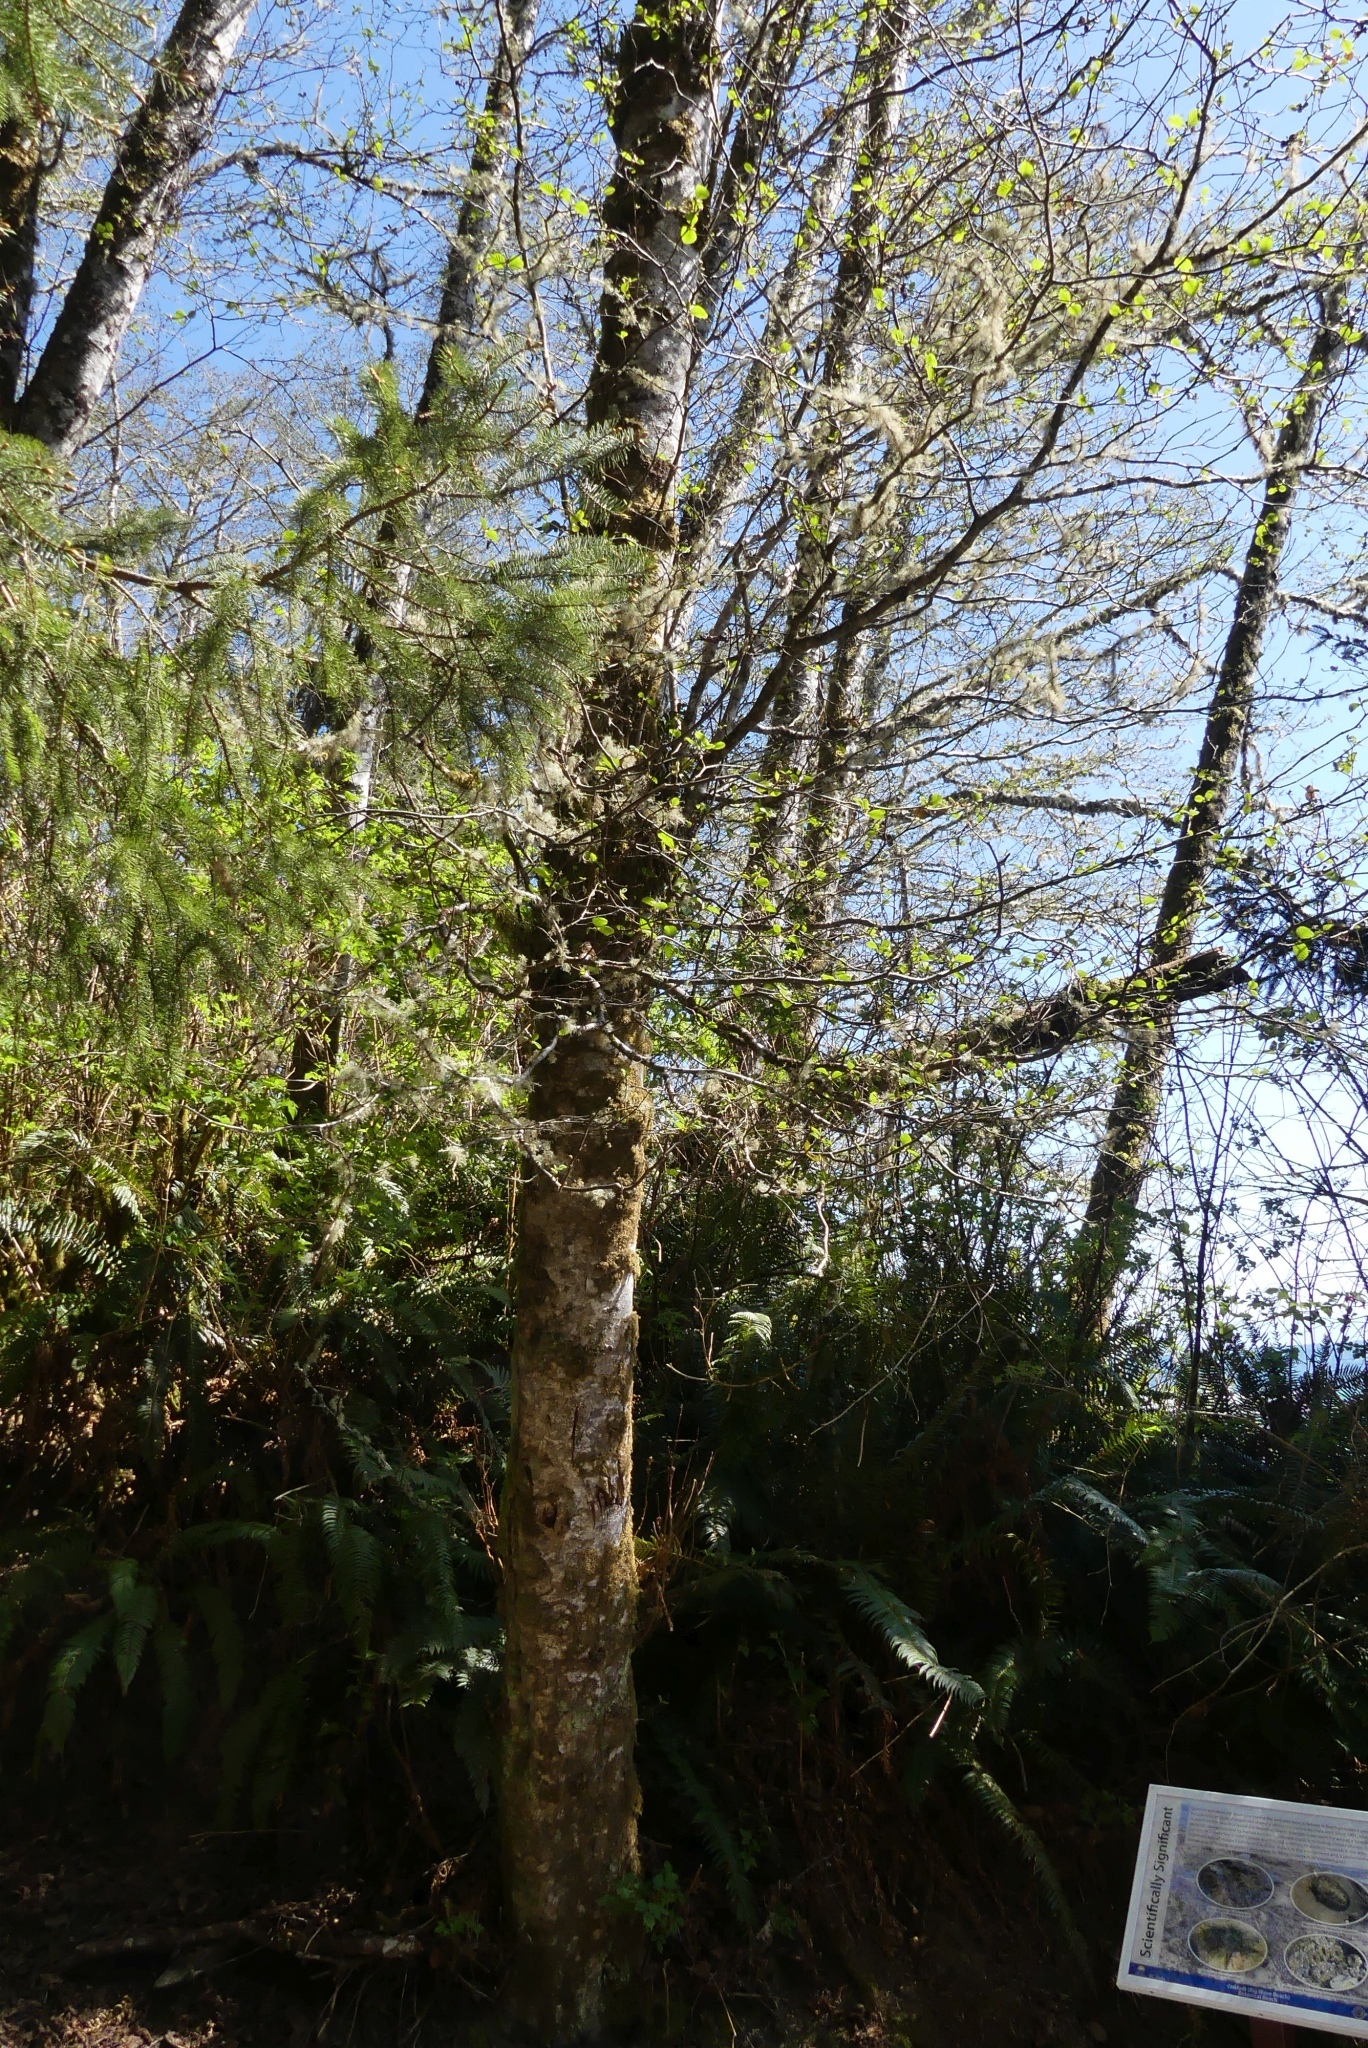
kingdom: Plantae
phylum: Tracheophyta
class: Magnoliopsida
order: Fagales
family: Betulaceae
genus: Alnus
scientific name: Alnus rubra
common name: Red alder
